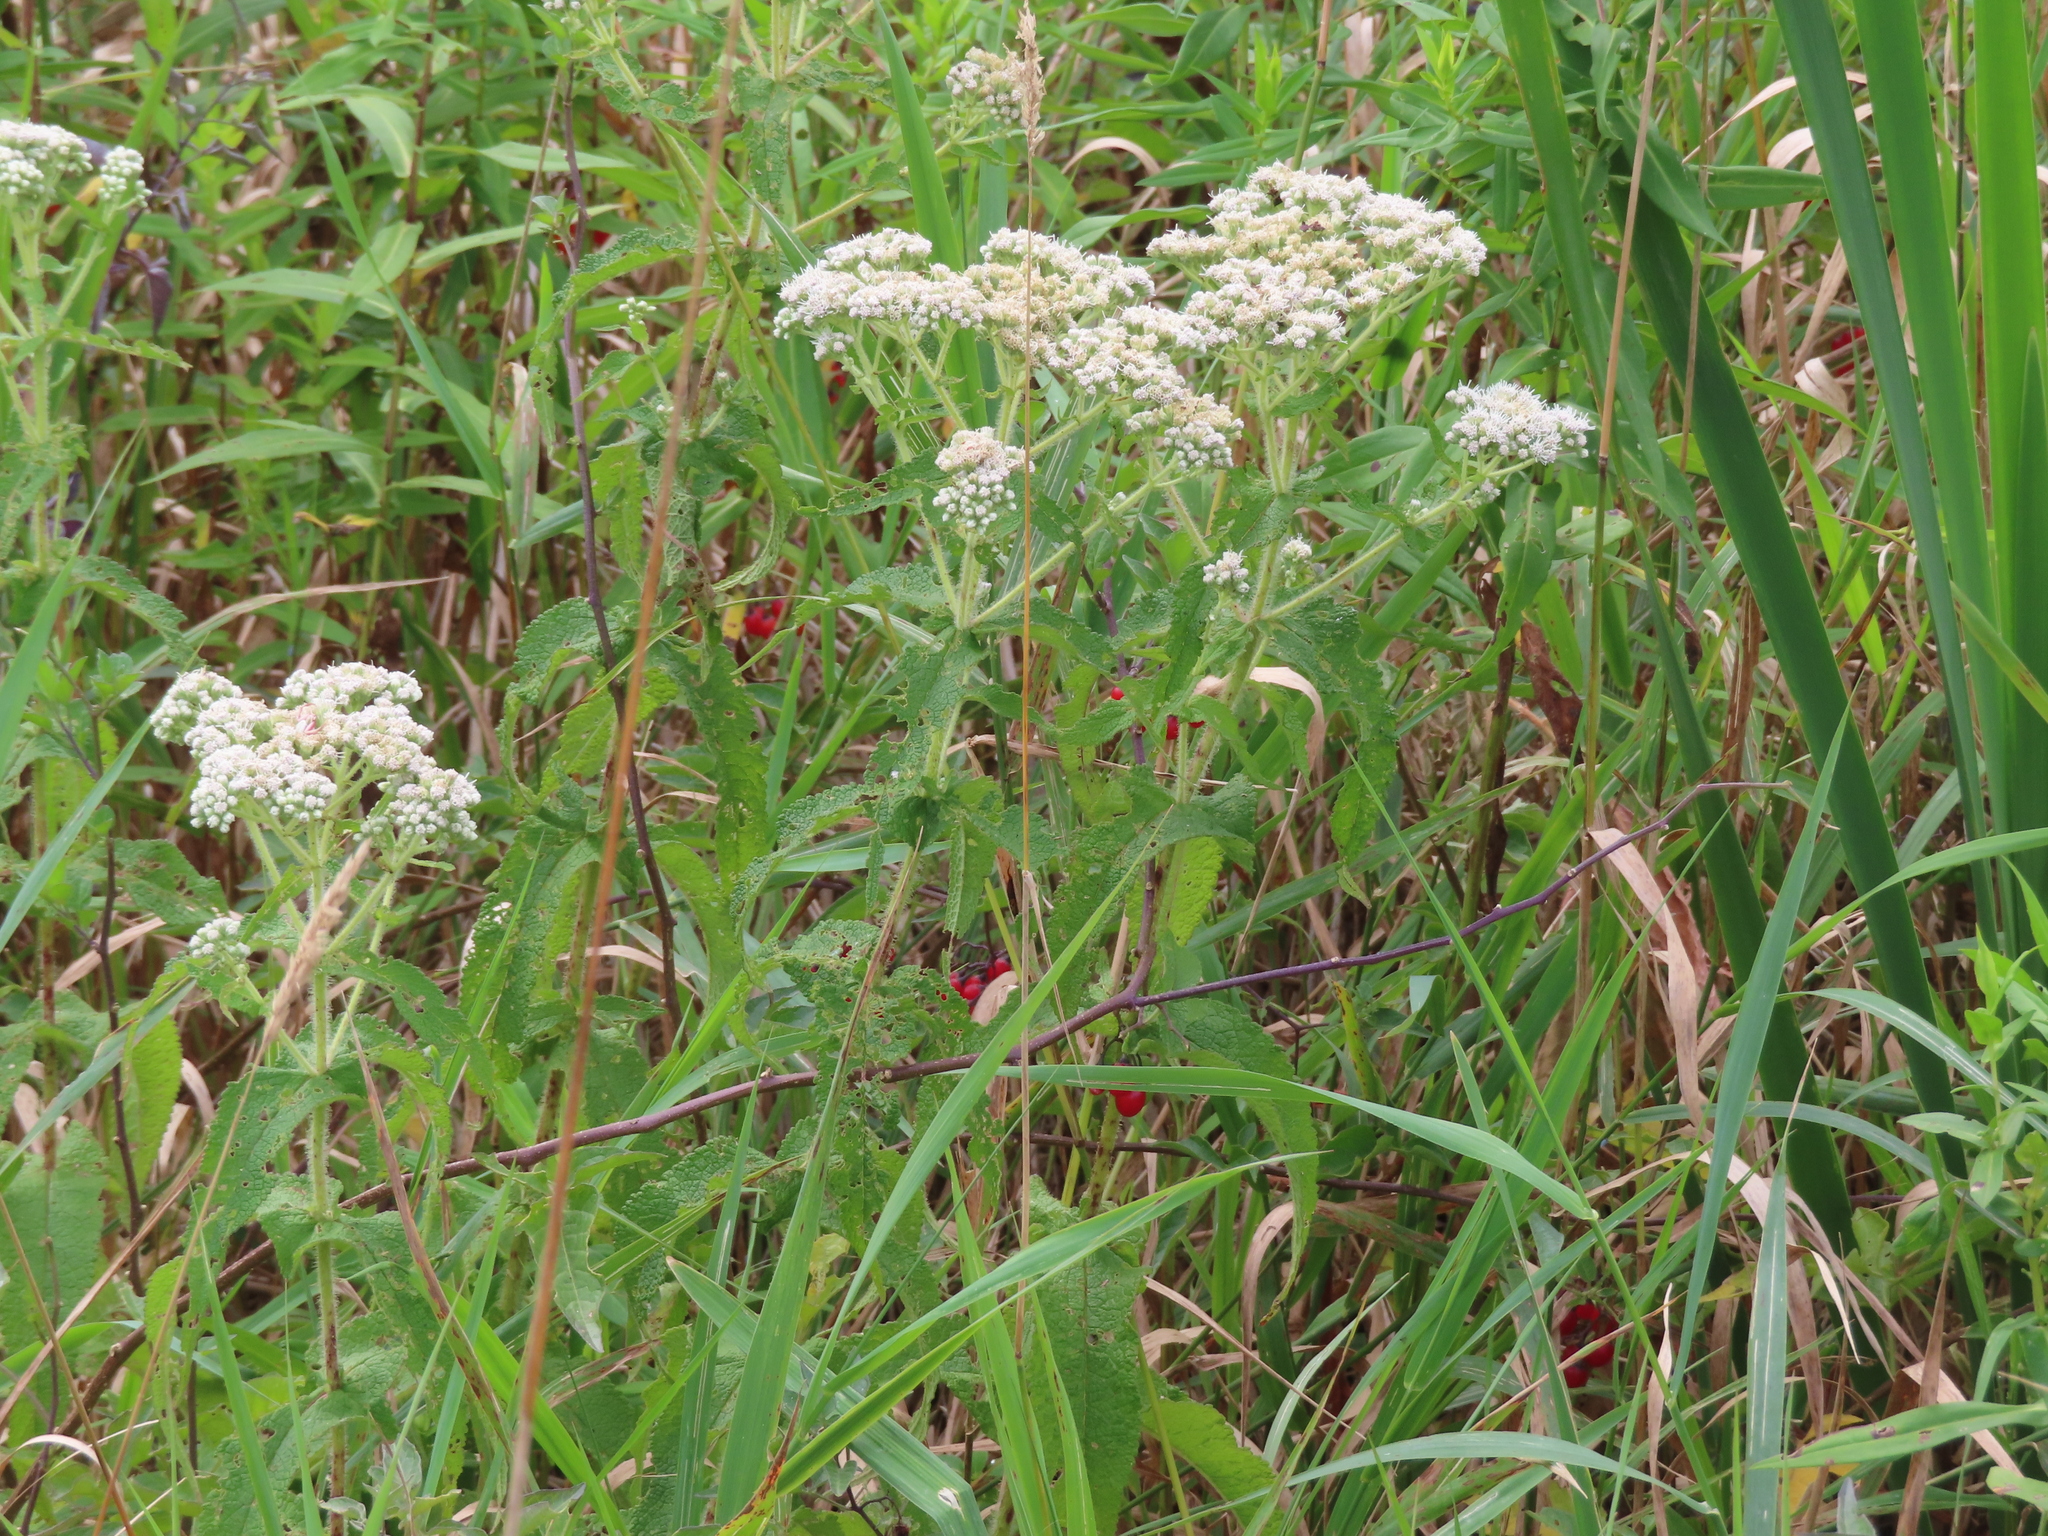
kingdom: Plantae
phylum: Tracheophyta
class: Magnoliopsida
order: Asterales
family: Asteraceae
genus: Eupatorium
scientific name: Eupatorium perfoliatum
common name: Boneset
